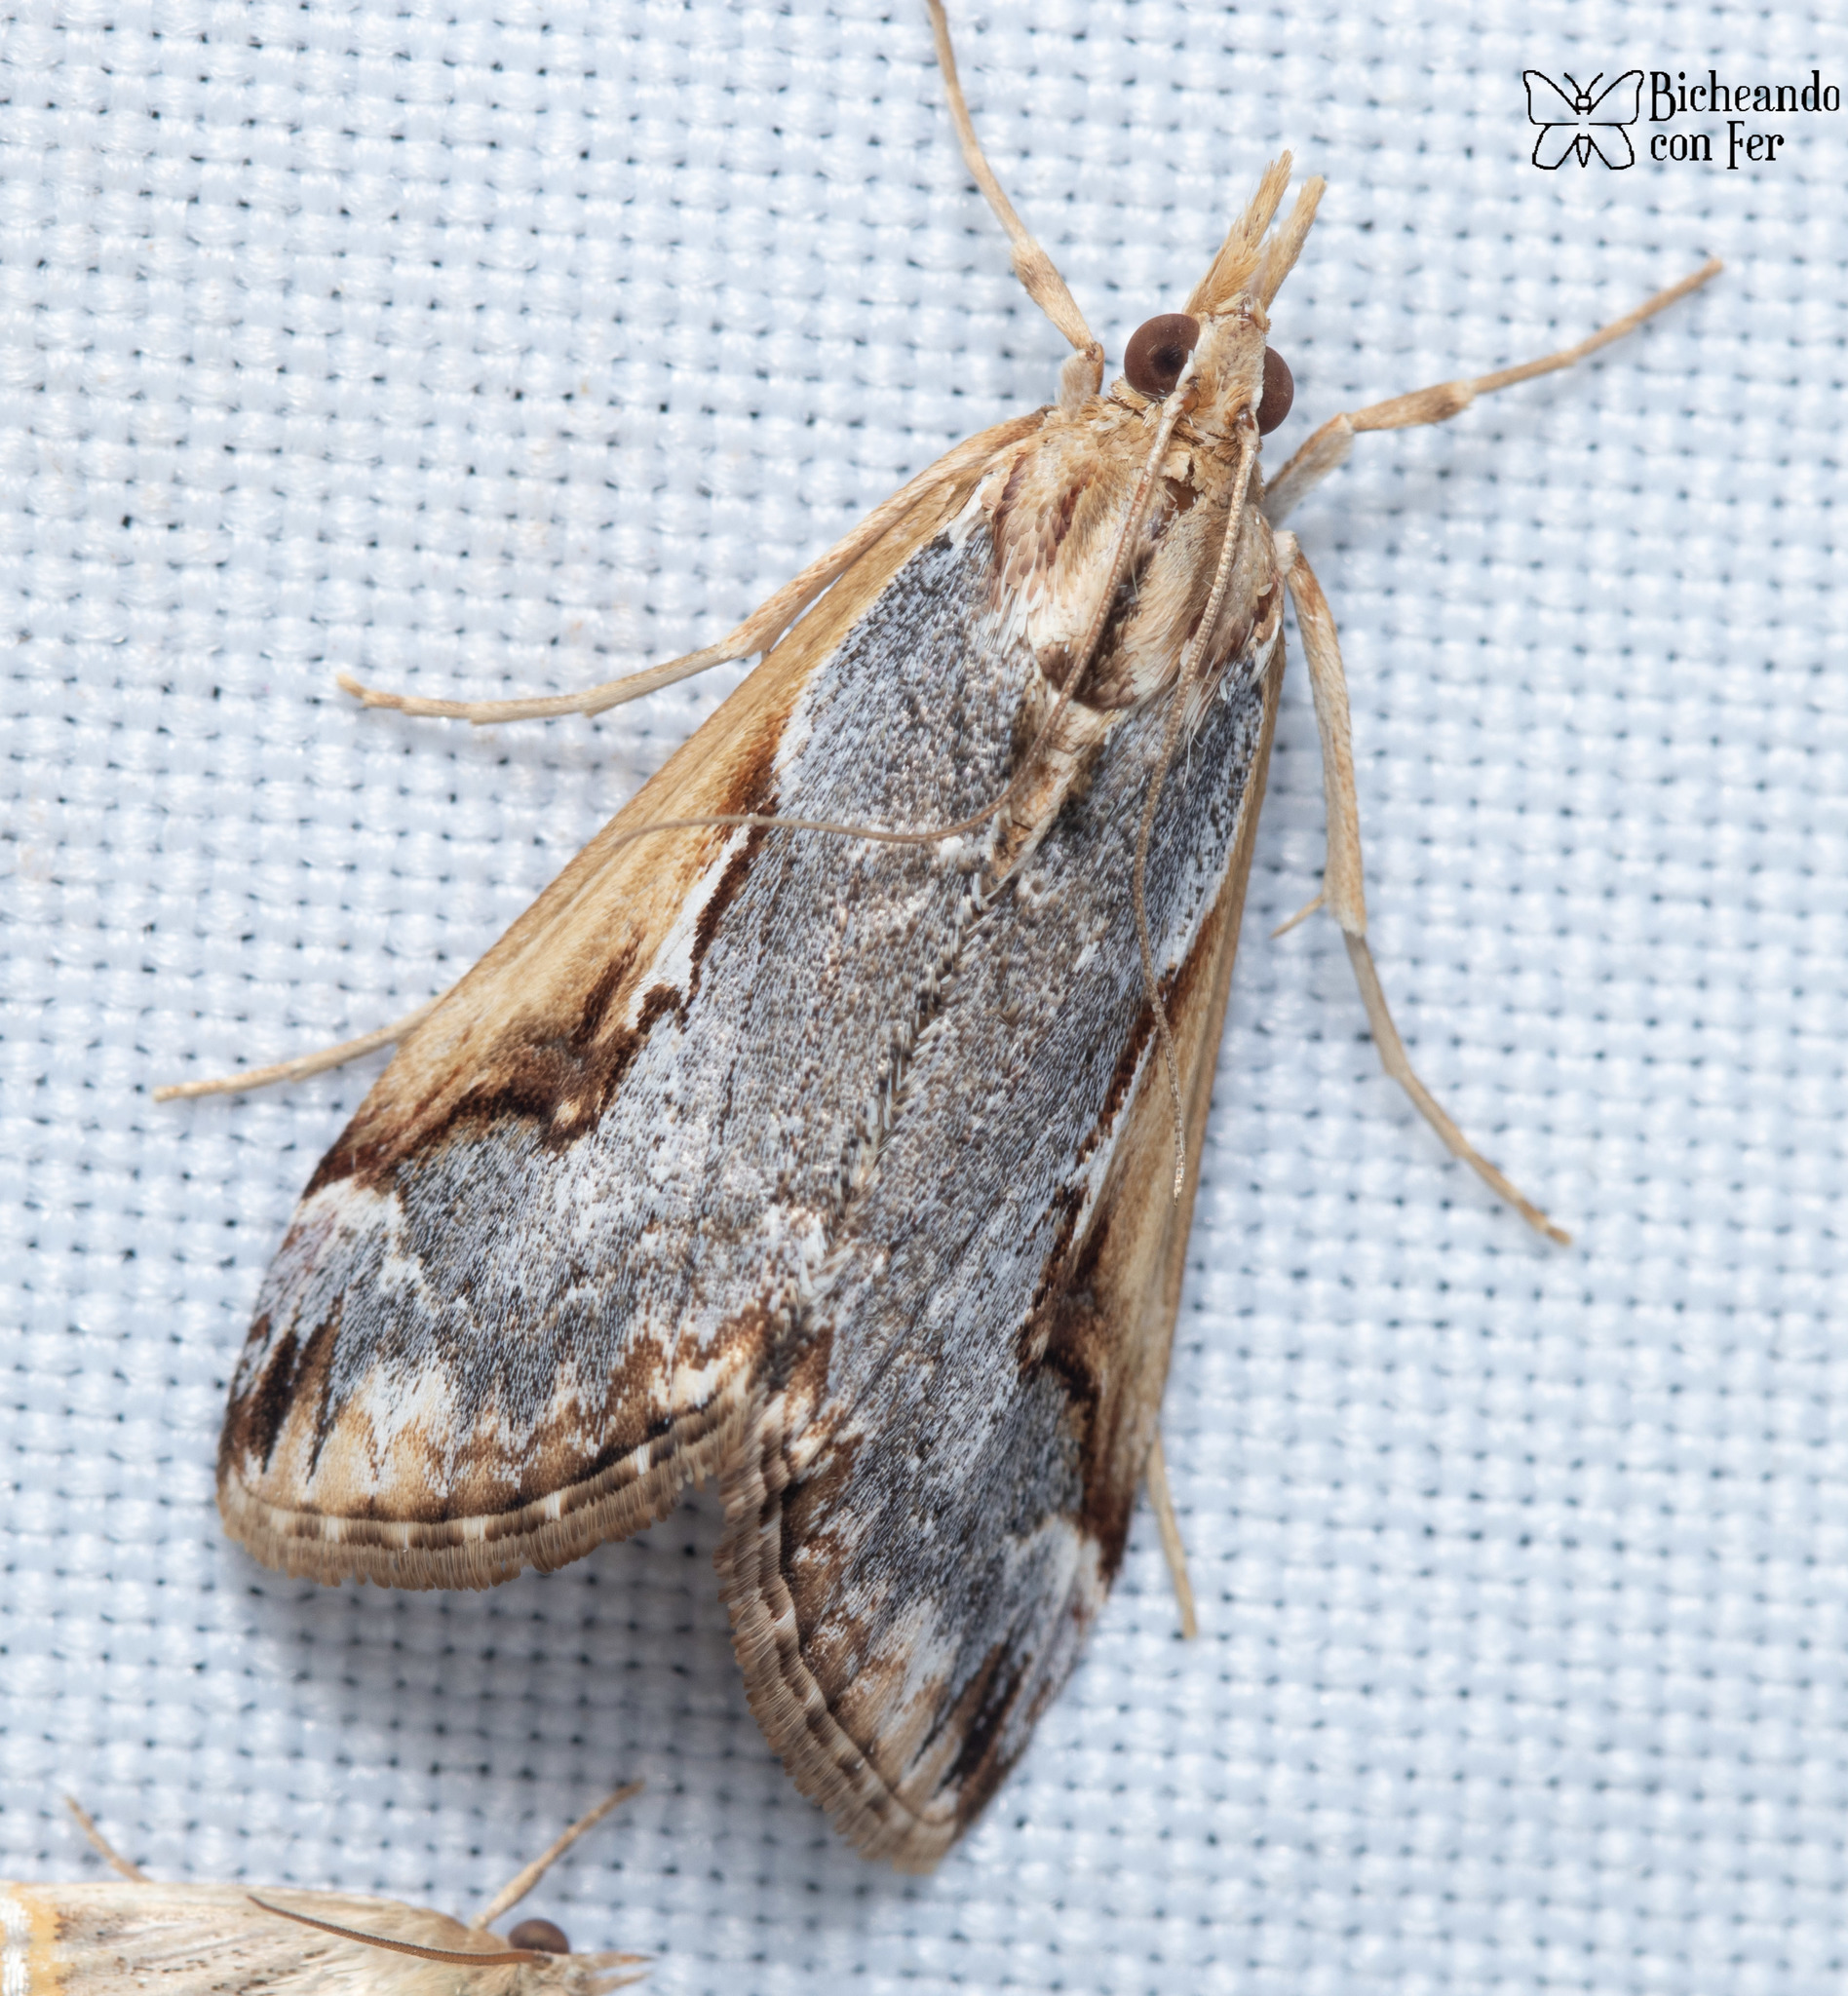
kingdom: Animalia
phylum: Arthropoda
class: Insecta
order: Lepidoptera
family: Crambidae
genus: Loxostege
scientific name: Loxostege albiceralis
